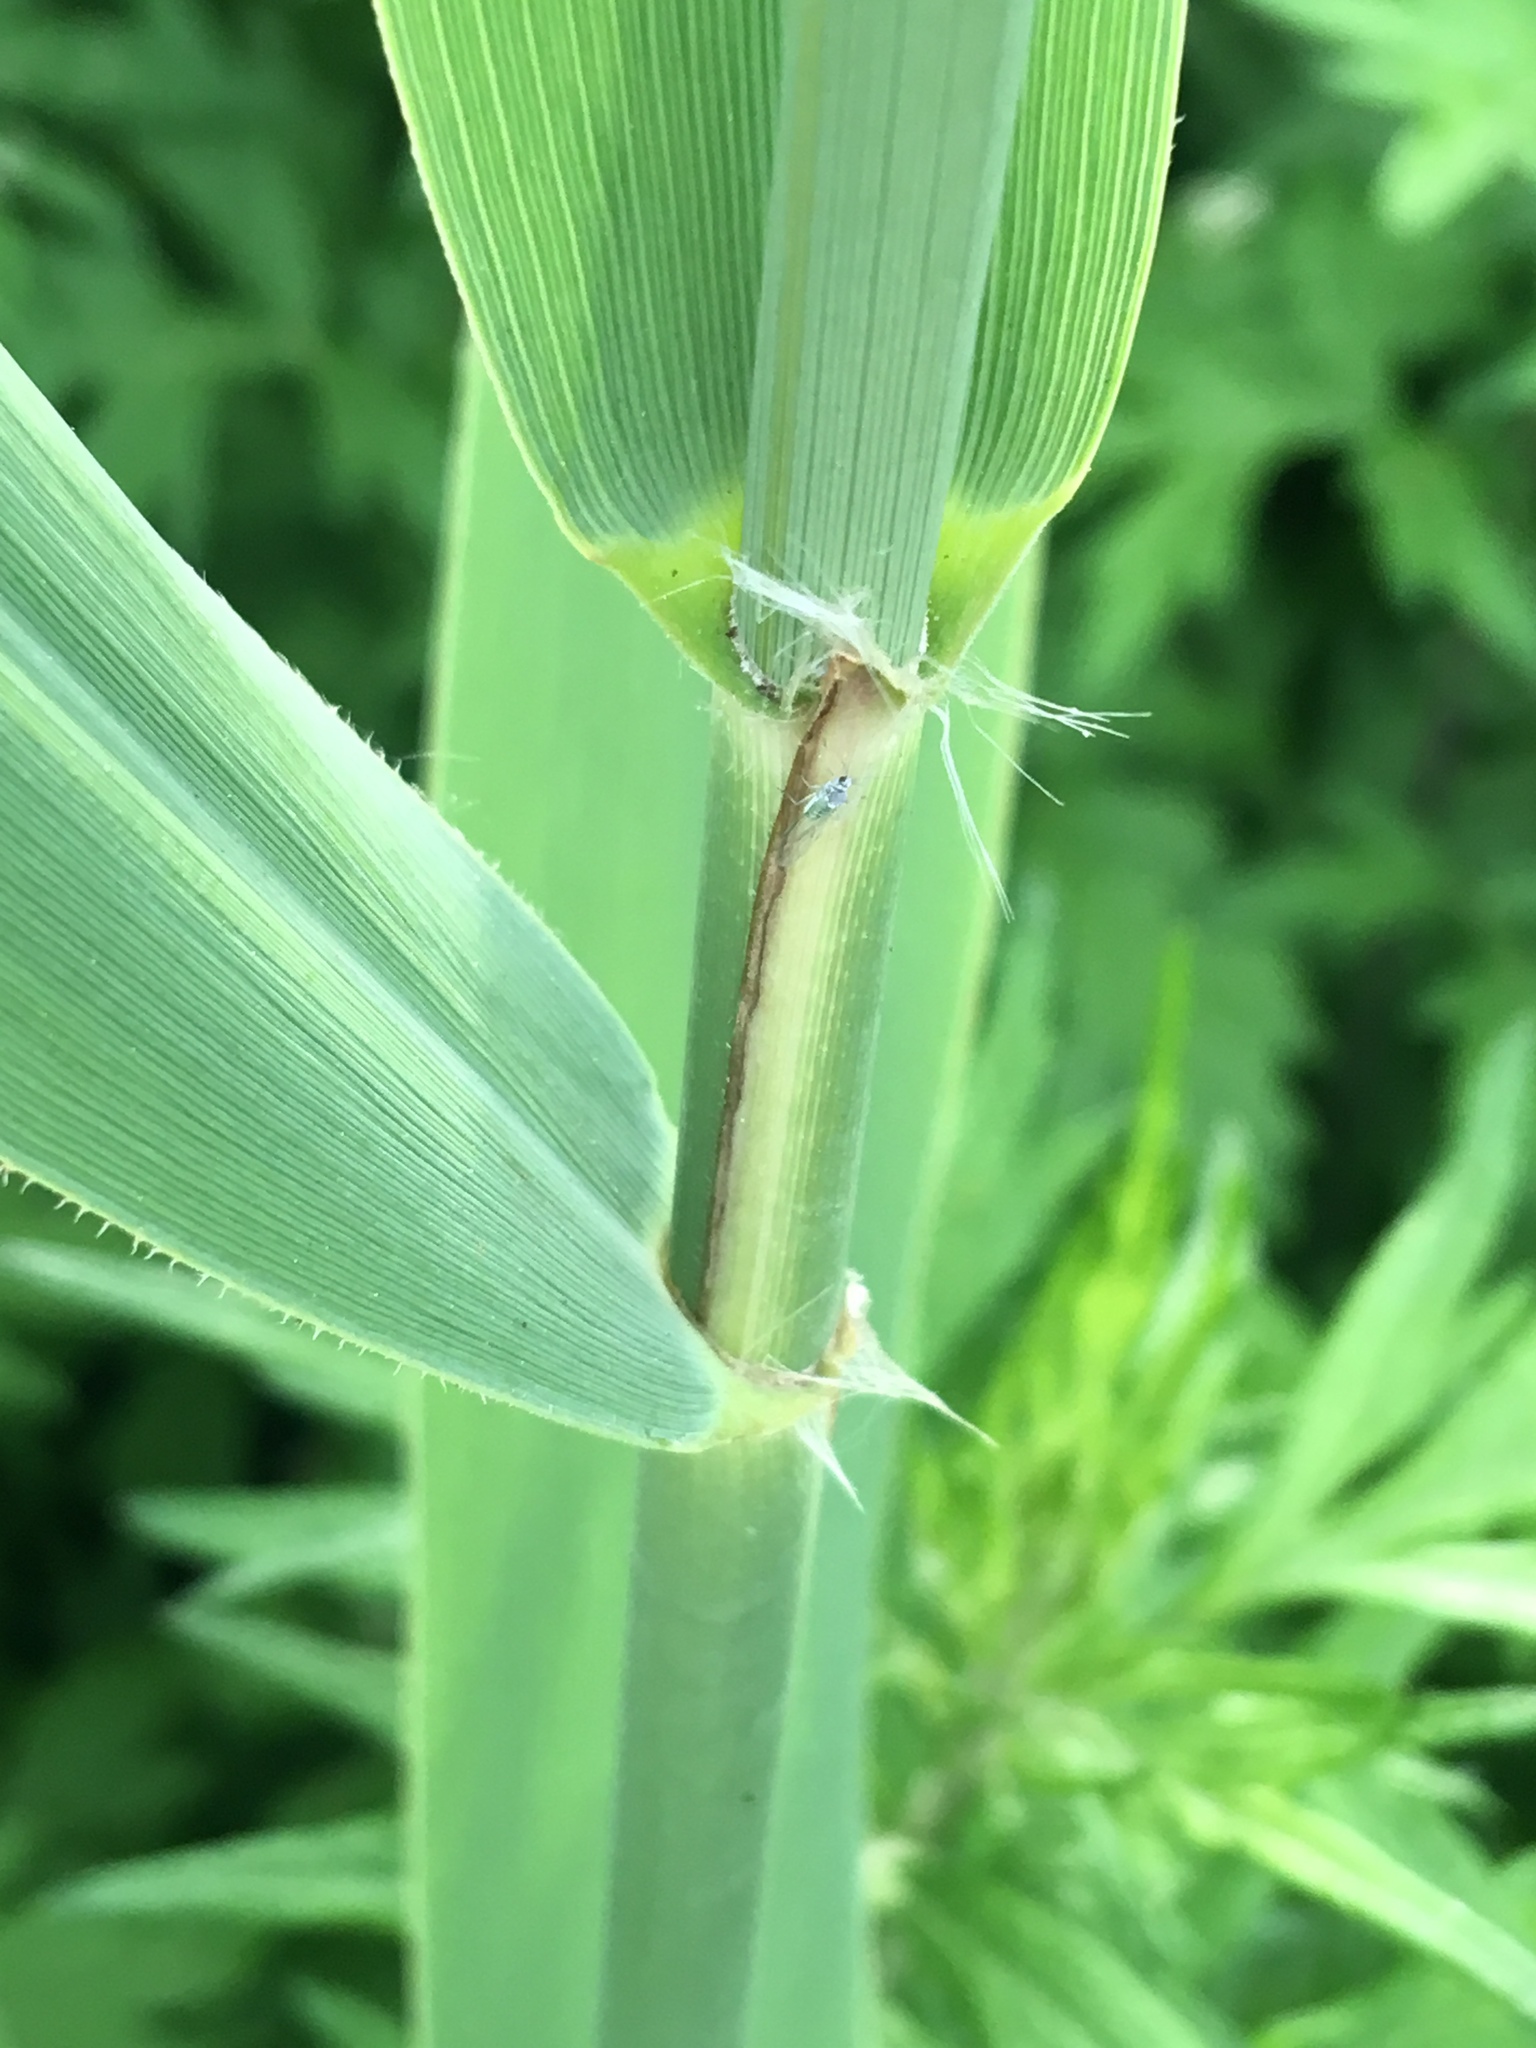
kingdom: Plantae
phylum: Tracheophyta
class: Liliopsida
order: Poales
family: Poaceae
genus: Phragmites
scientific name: Phragmites australis
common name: Common reed
